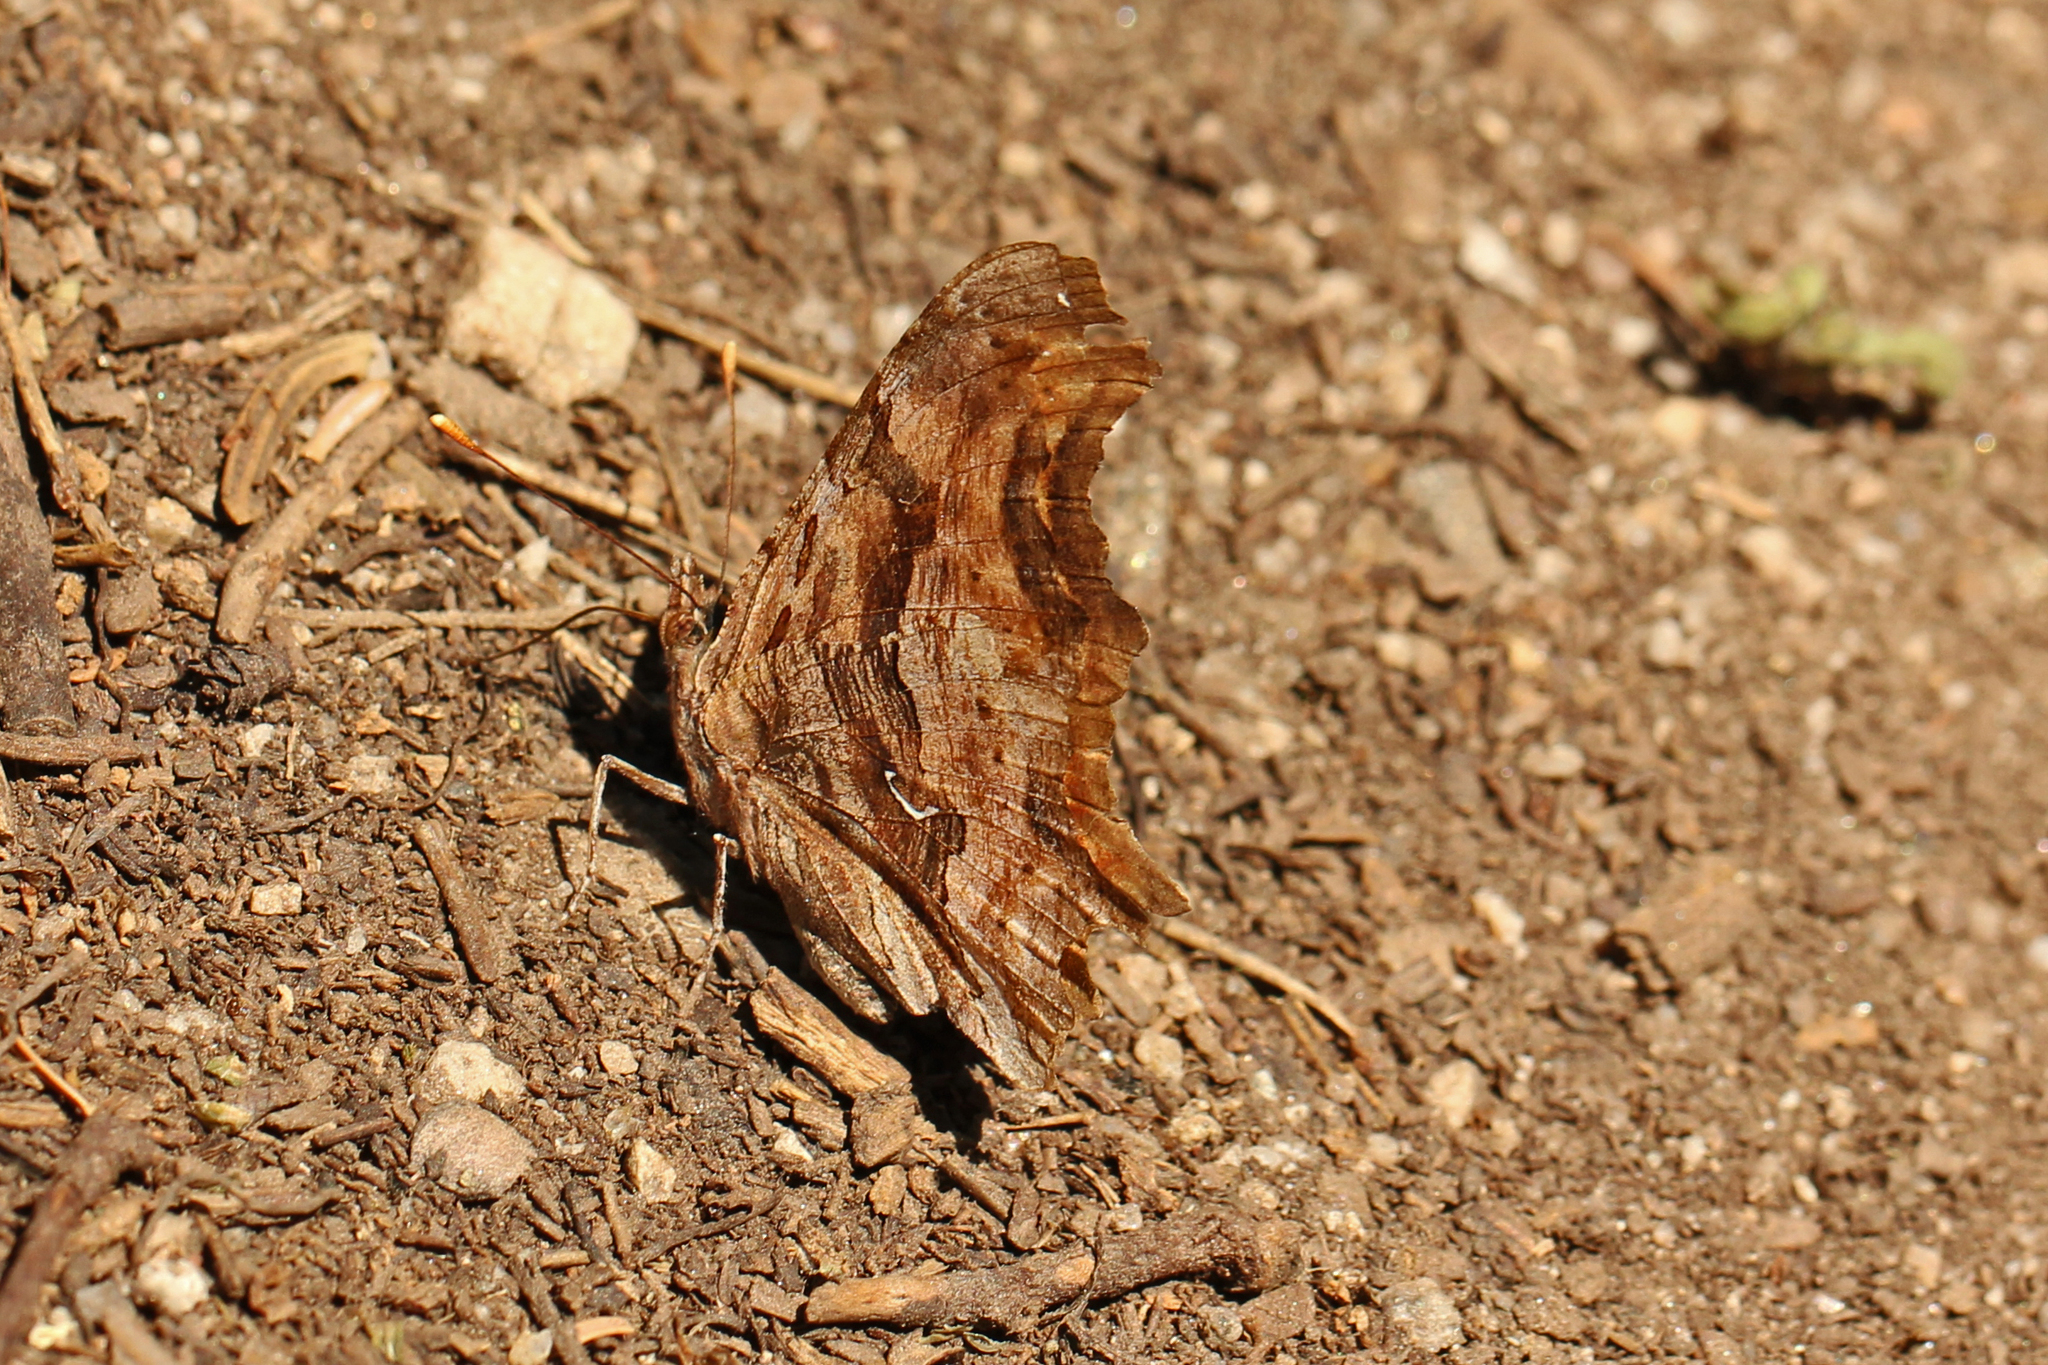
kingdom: Animalia
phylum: Arthropoda
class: Insecta
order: Lepidoptera
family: Nymphalidae
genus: Polygonia
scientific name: Polygonia satyrus
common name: Satyr angle wing
